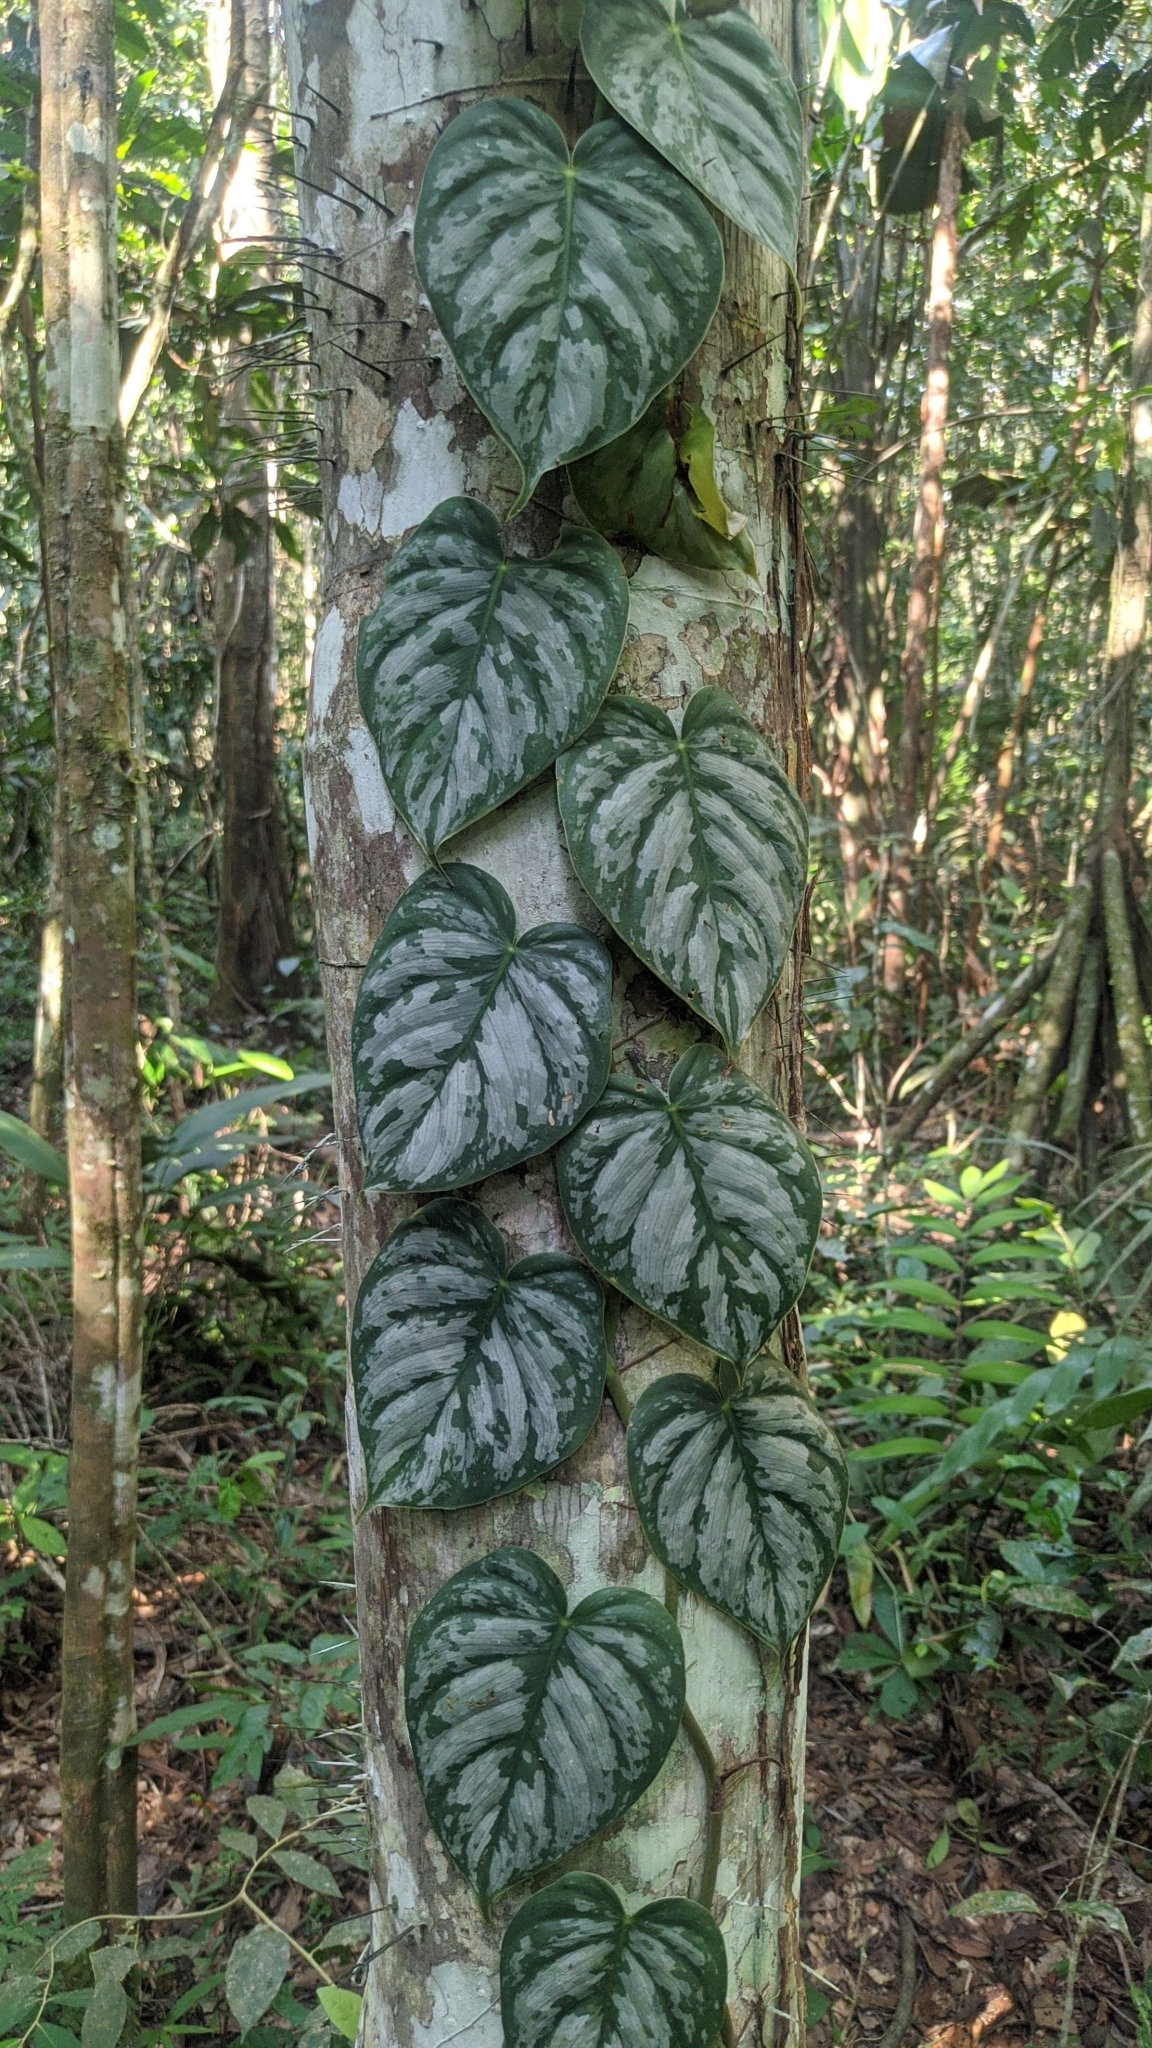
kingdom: Plantae
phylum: Tracheophyta
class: Liliopsida
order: Alismatales
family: Araceae
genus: Philodendron
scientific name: Philodendron brandtianum
